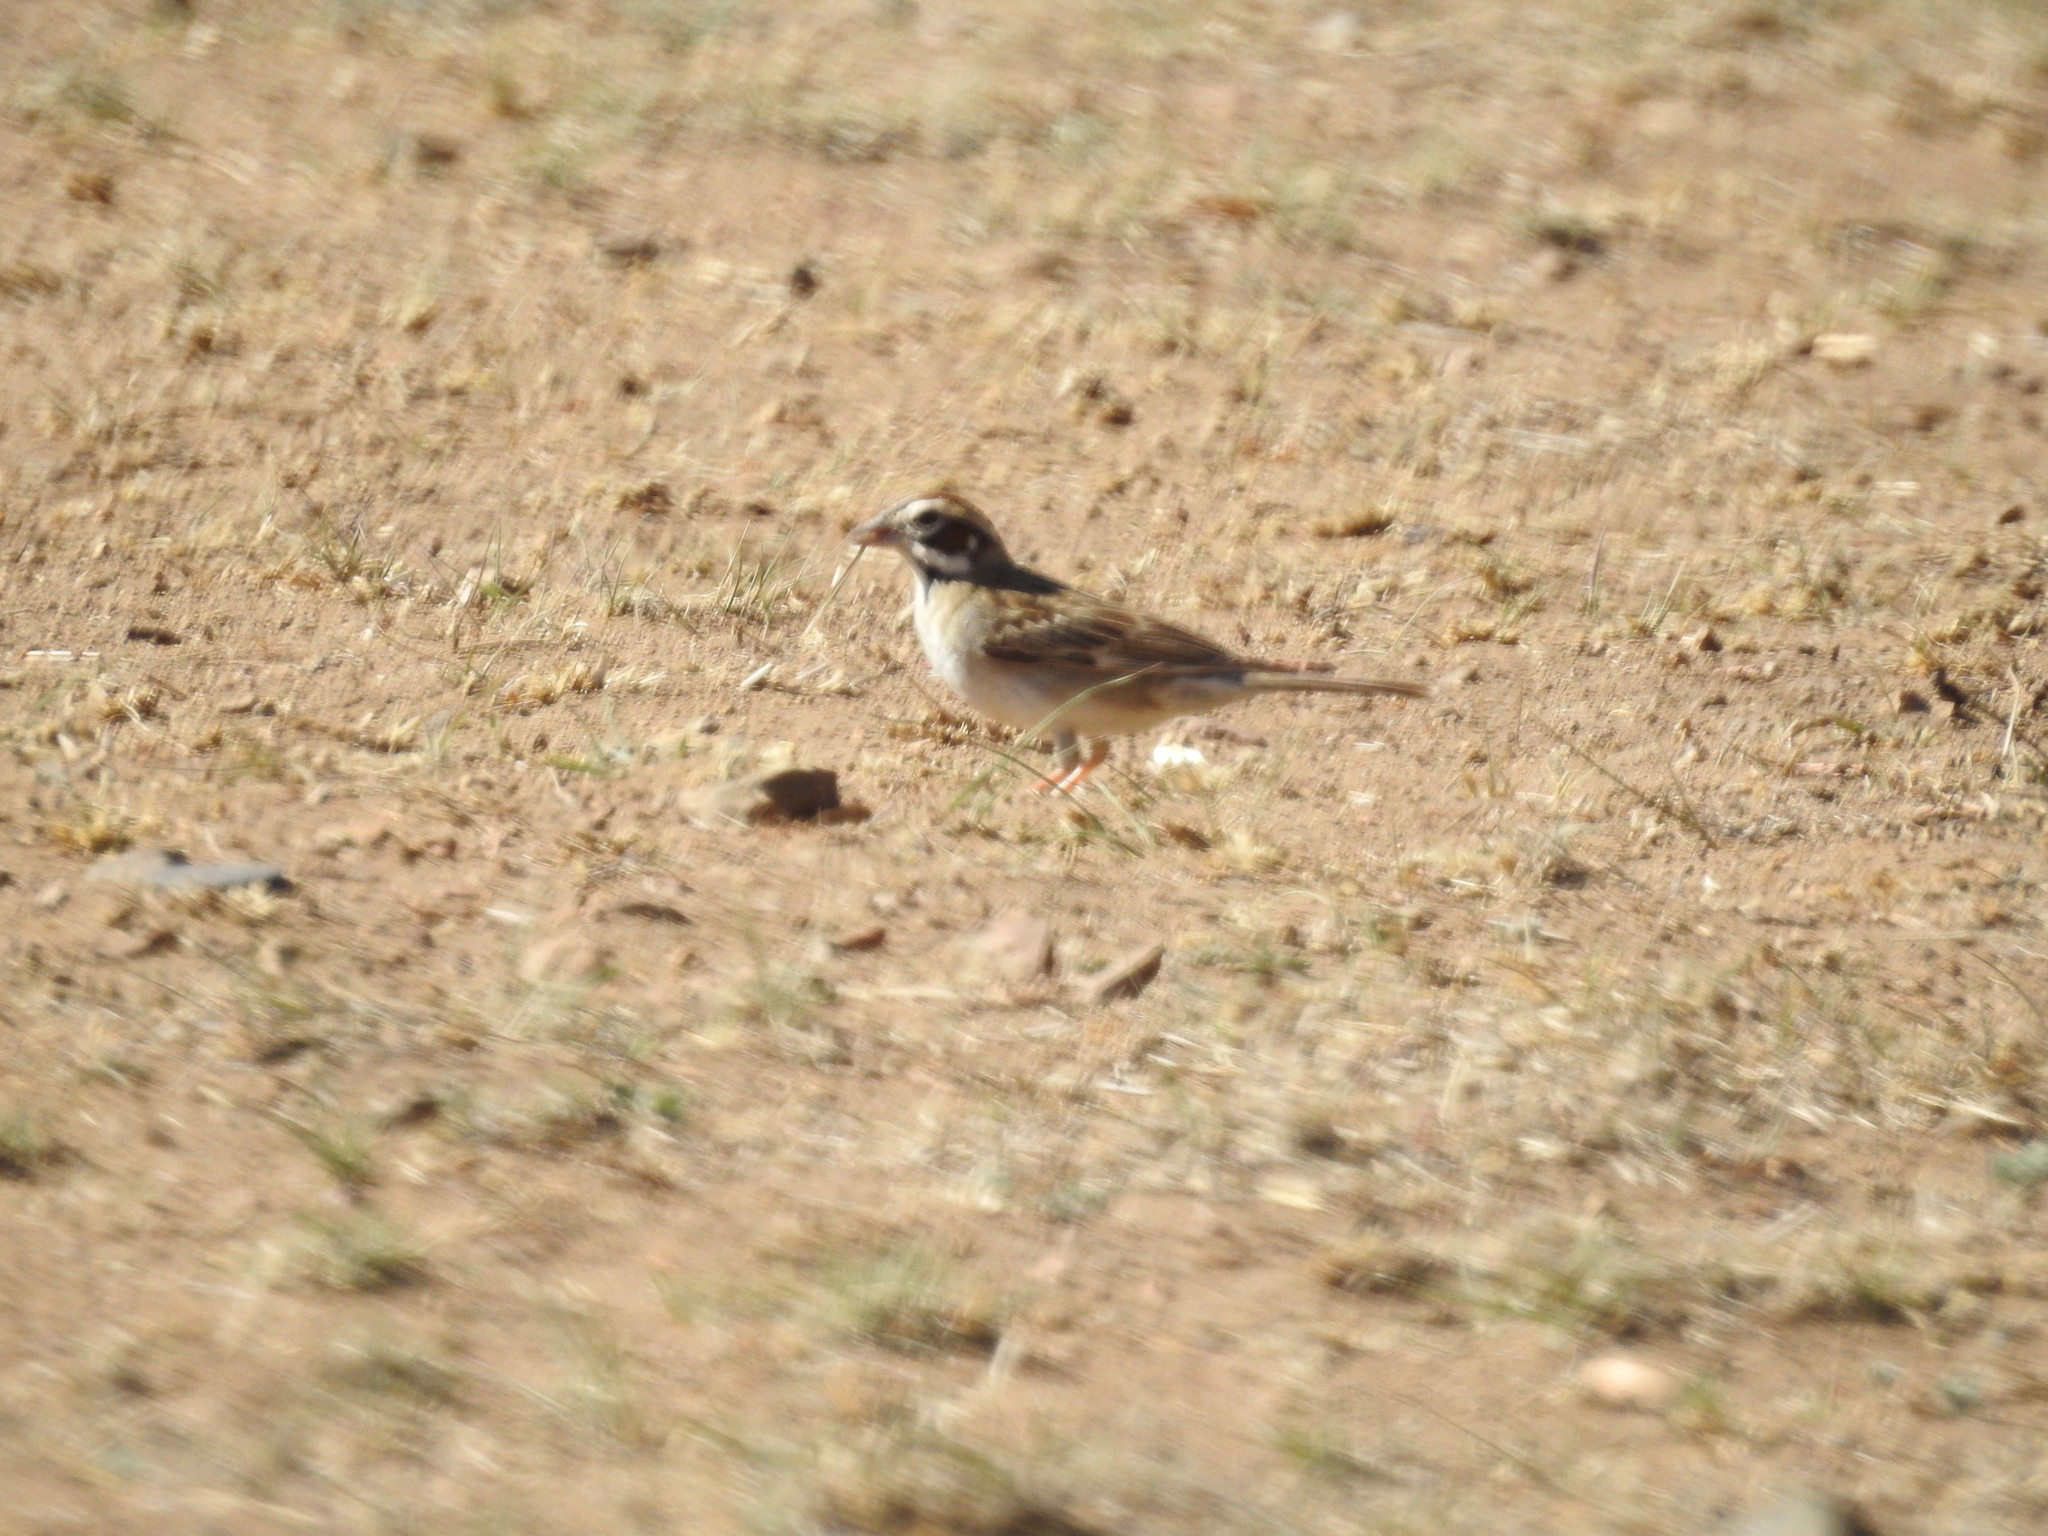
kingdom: Animalia
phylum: Chordata
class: Aves
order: Passeriformes
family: Passerellidae
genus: Chondestes
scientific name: Chondestes grammacus
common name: Lark sparrow
